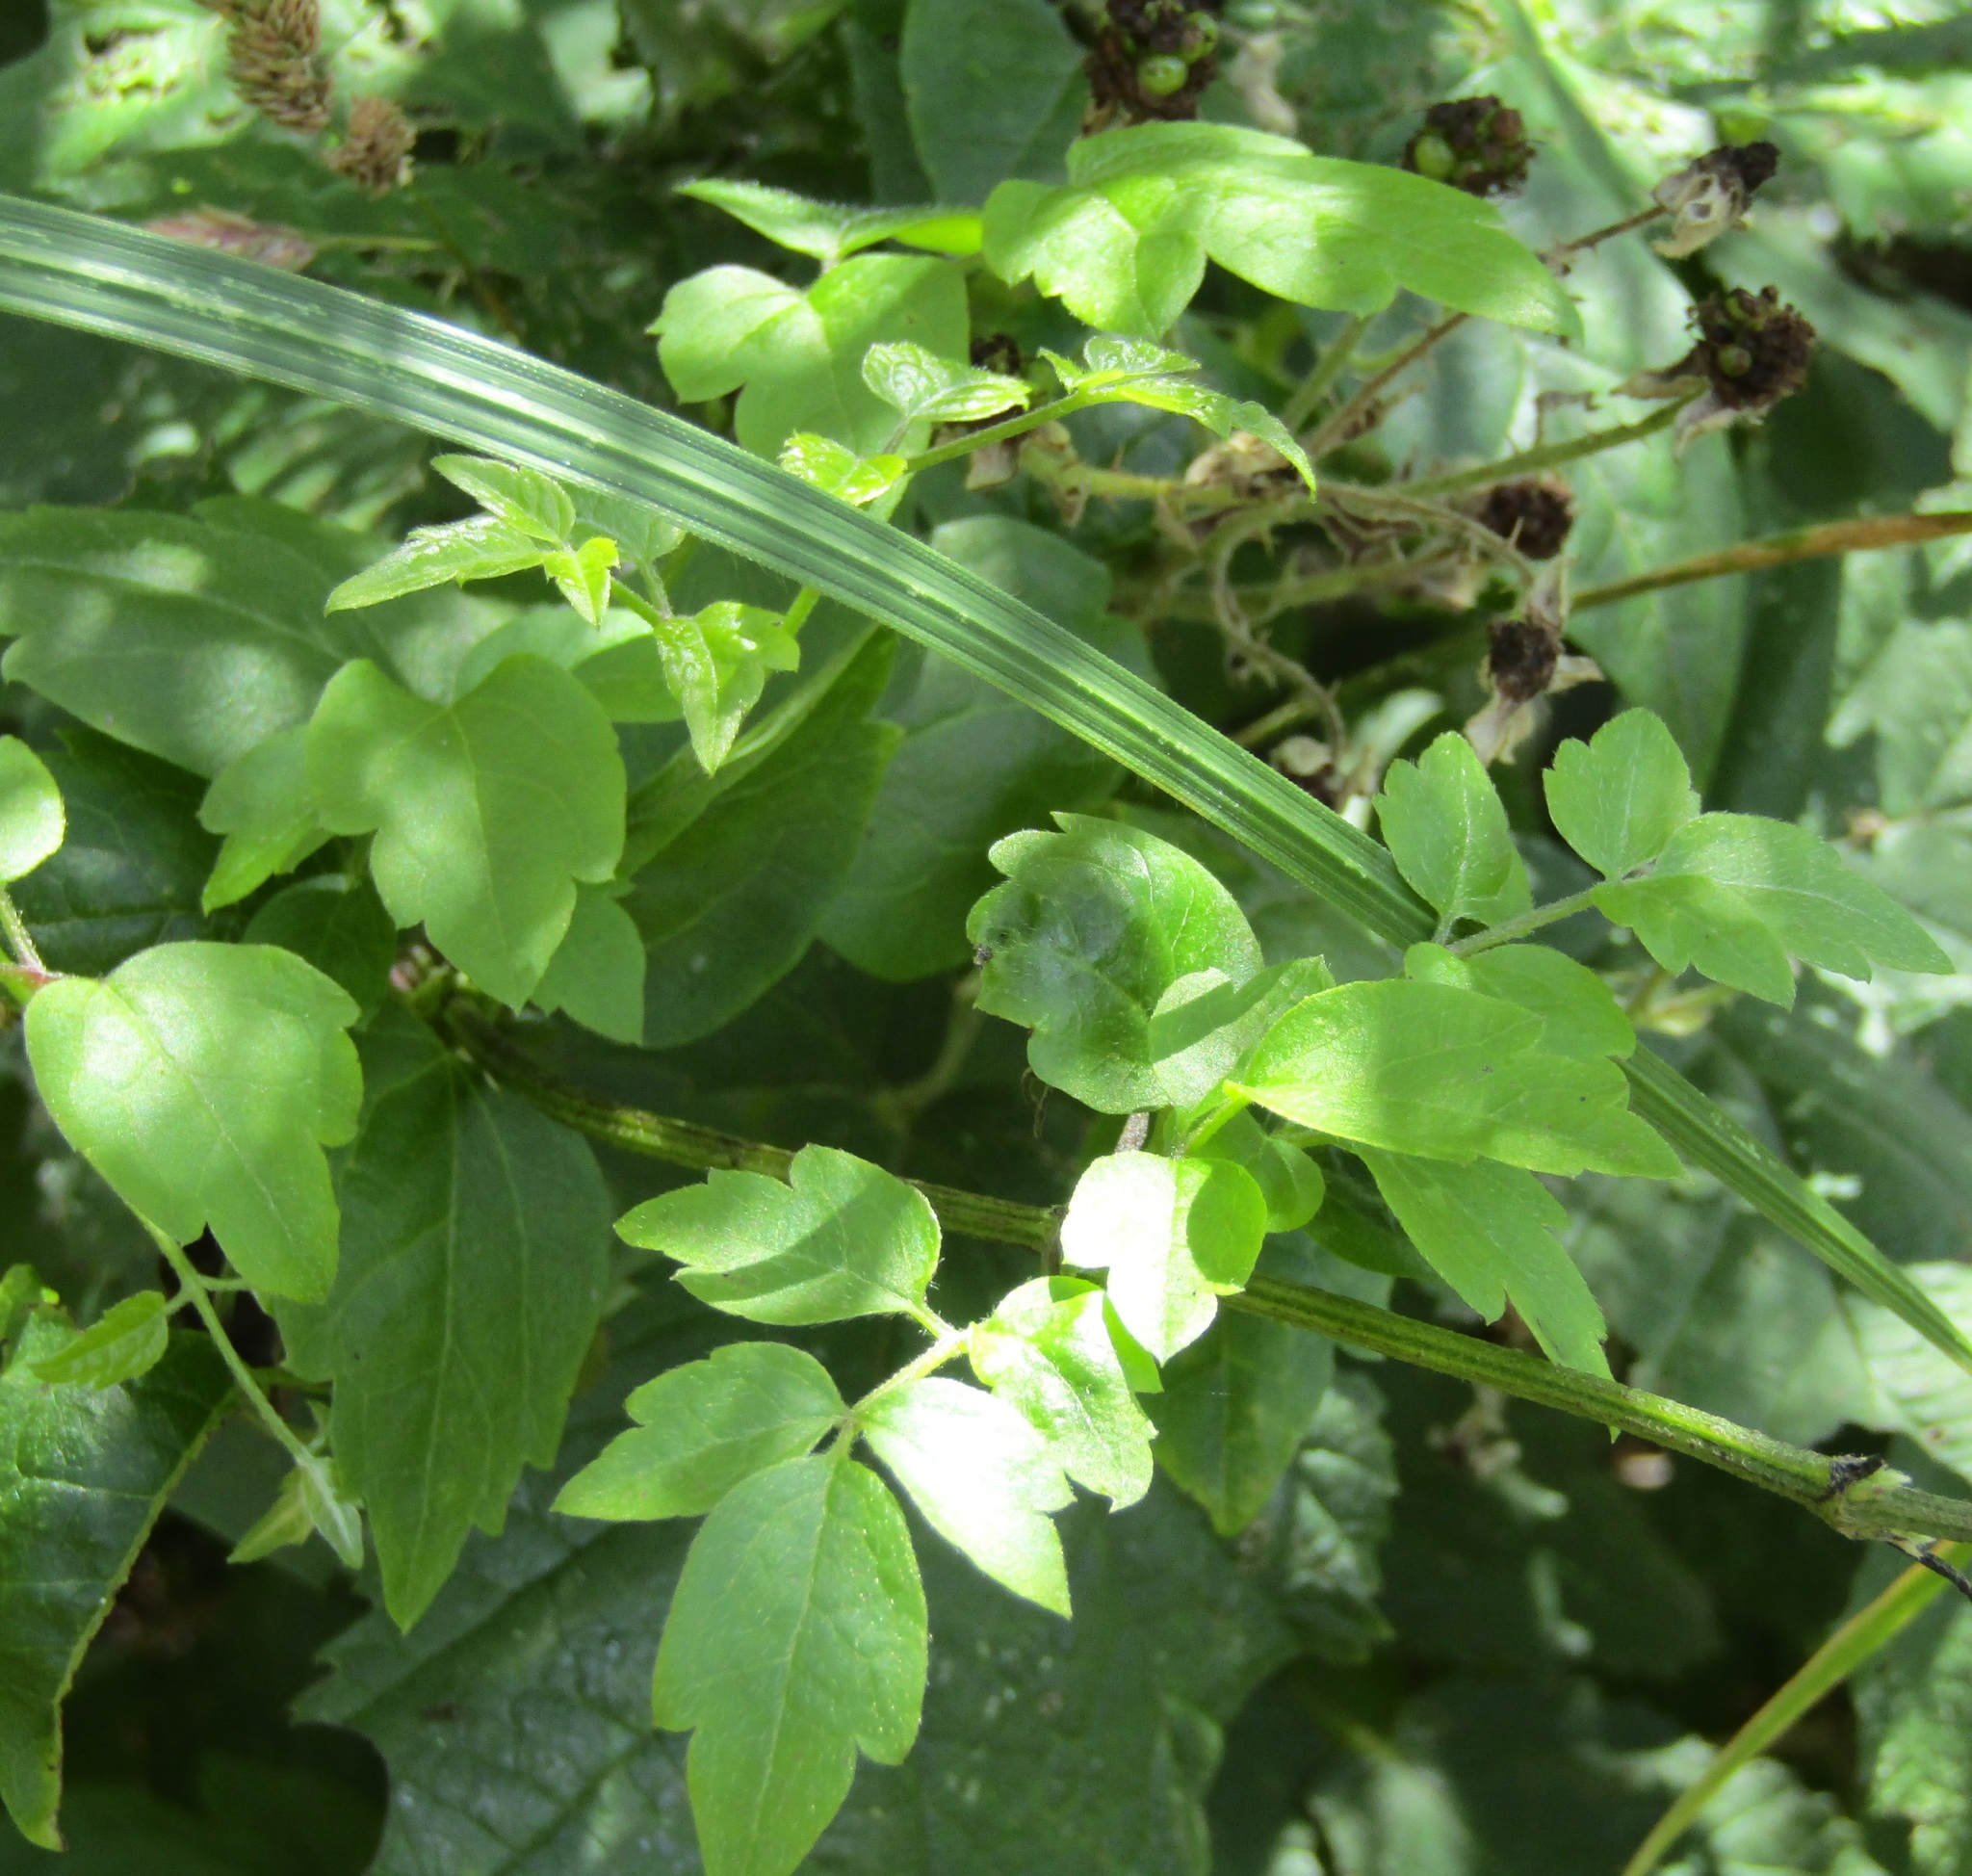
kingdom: Plantae
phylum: Tracheophyta
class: Magnoliopsida
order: Ranunculales
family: Ranunculaceae
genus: Clematis
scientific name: Clematis vitalba
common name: Evergreen clematis
